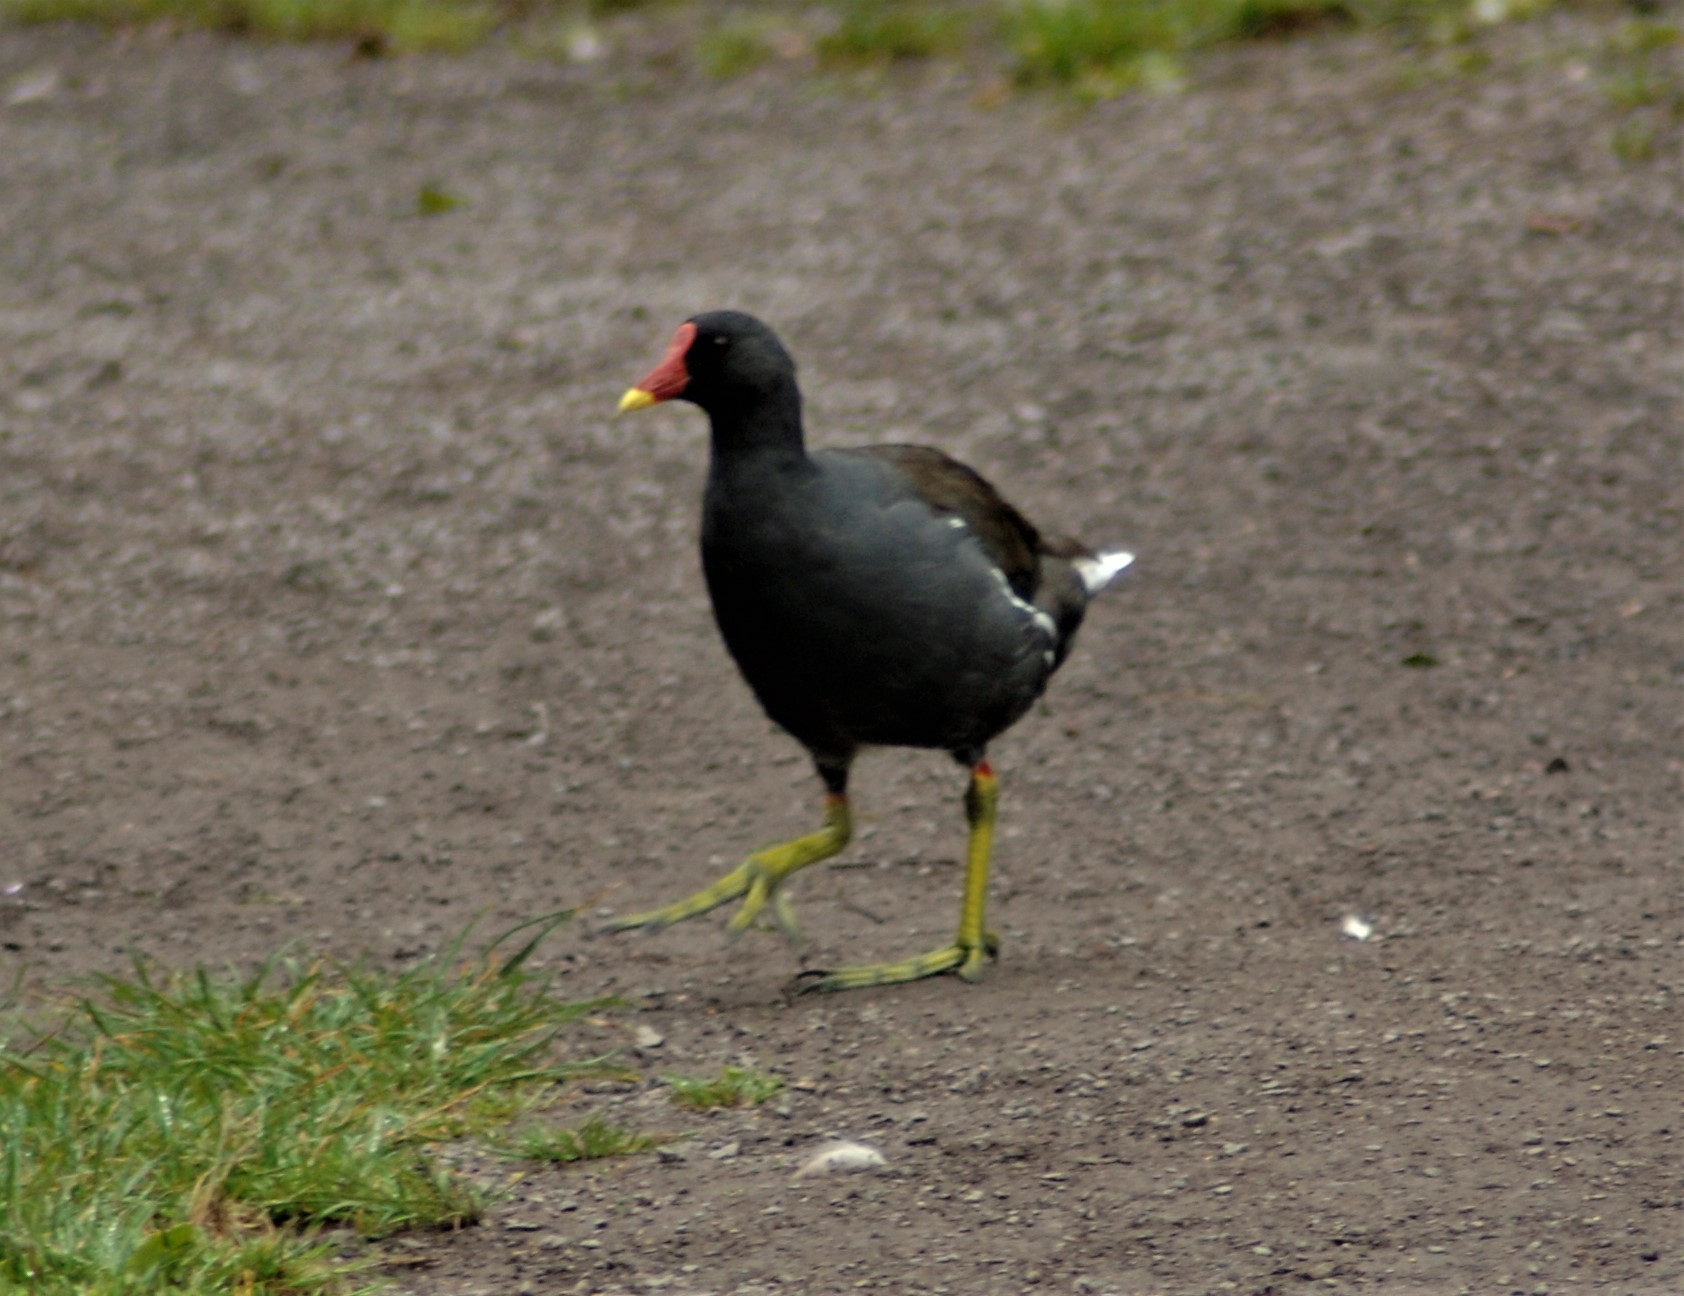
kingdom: Animalia
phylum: Chordata
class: Aves
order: Gruiformes
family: Rallidae
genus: Gallinula
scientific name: Gallinula chloropus
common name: Common moorhen
